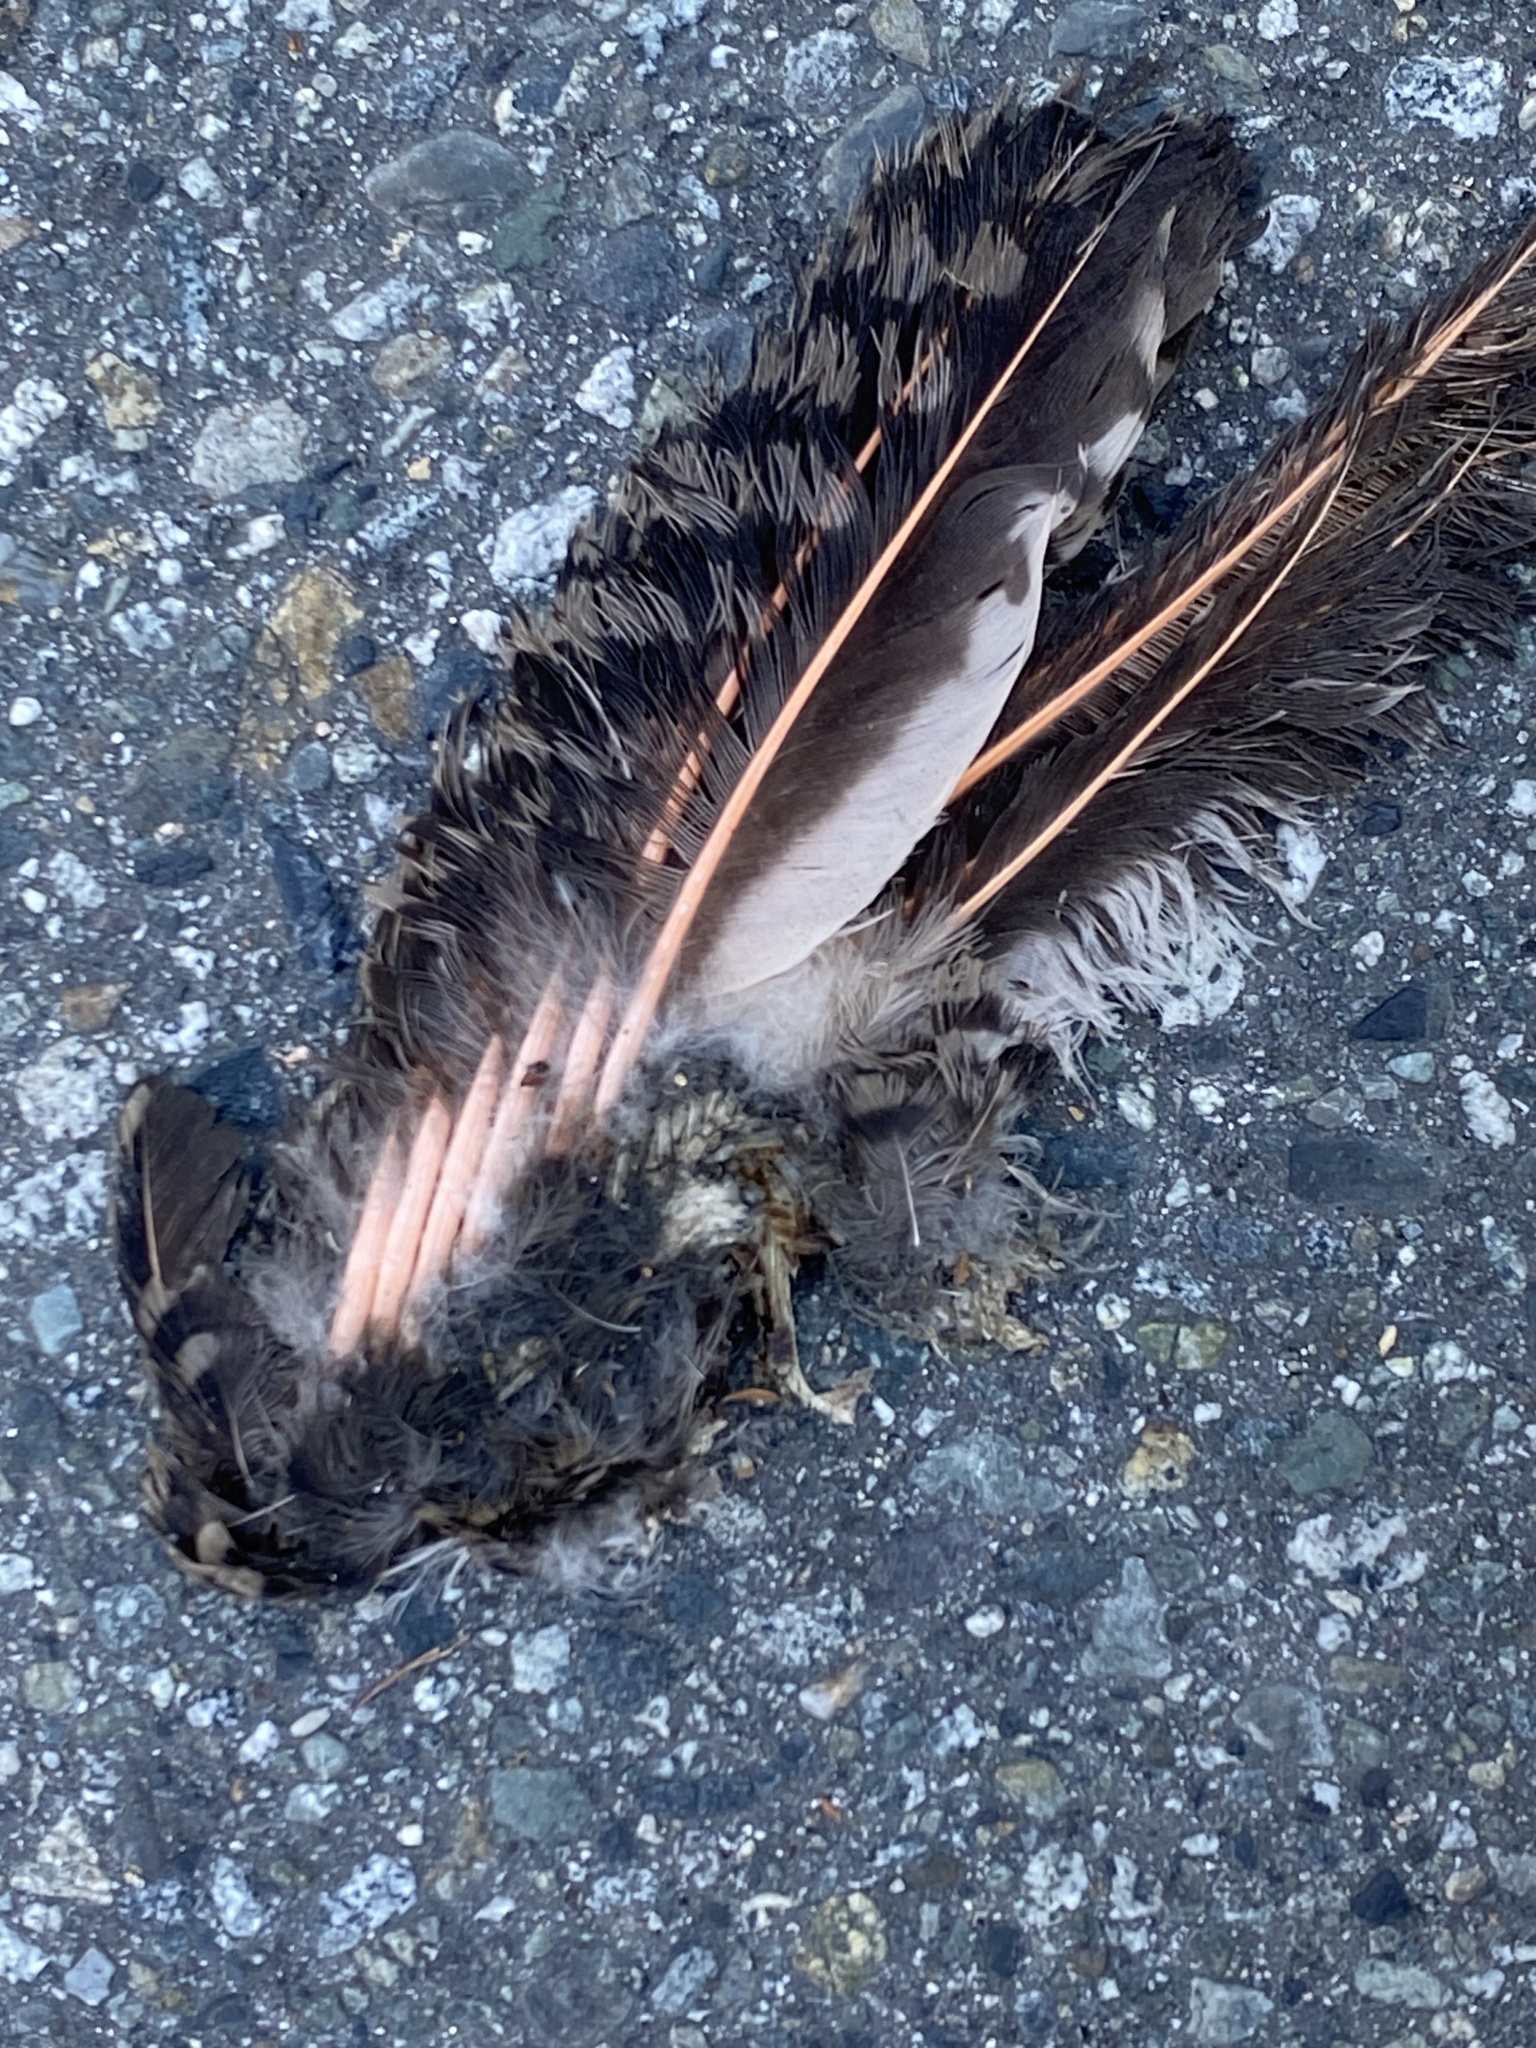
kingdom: Animalia
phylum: Chordata
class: Aves
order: Piciformes
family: Picidae
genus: Colaptes
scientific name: Colaptes auratus
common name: Northern flicker
